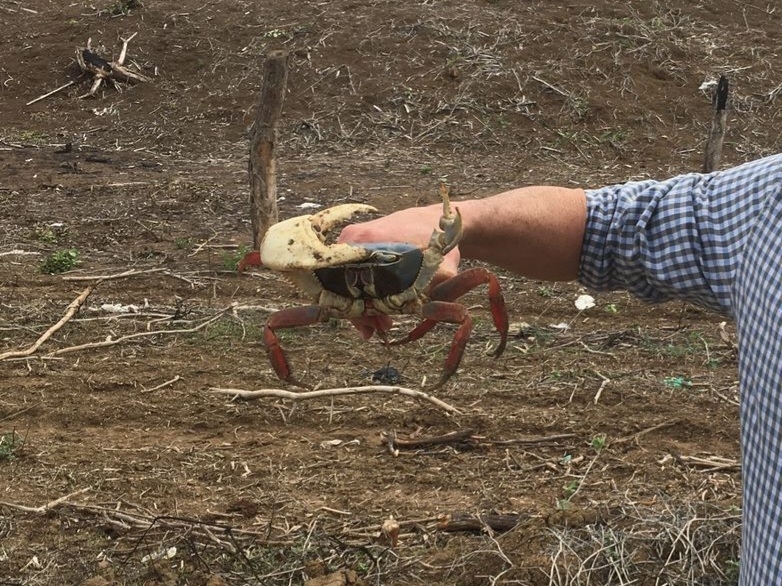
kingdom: Animalia
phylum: Arthropoda
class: Malacostraca
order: Decapoda
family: Gecarcinidae
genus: Cardisoma
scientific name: Cardisoma crassum
